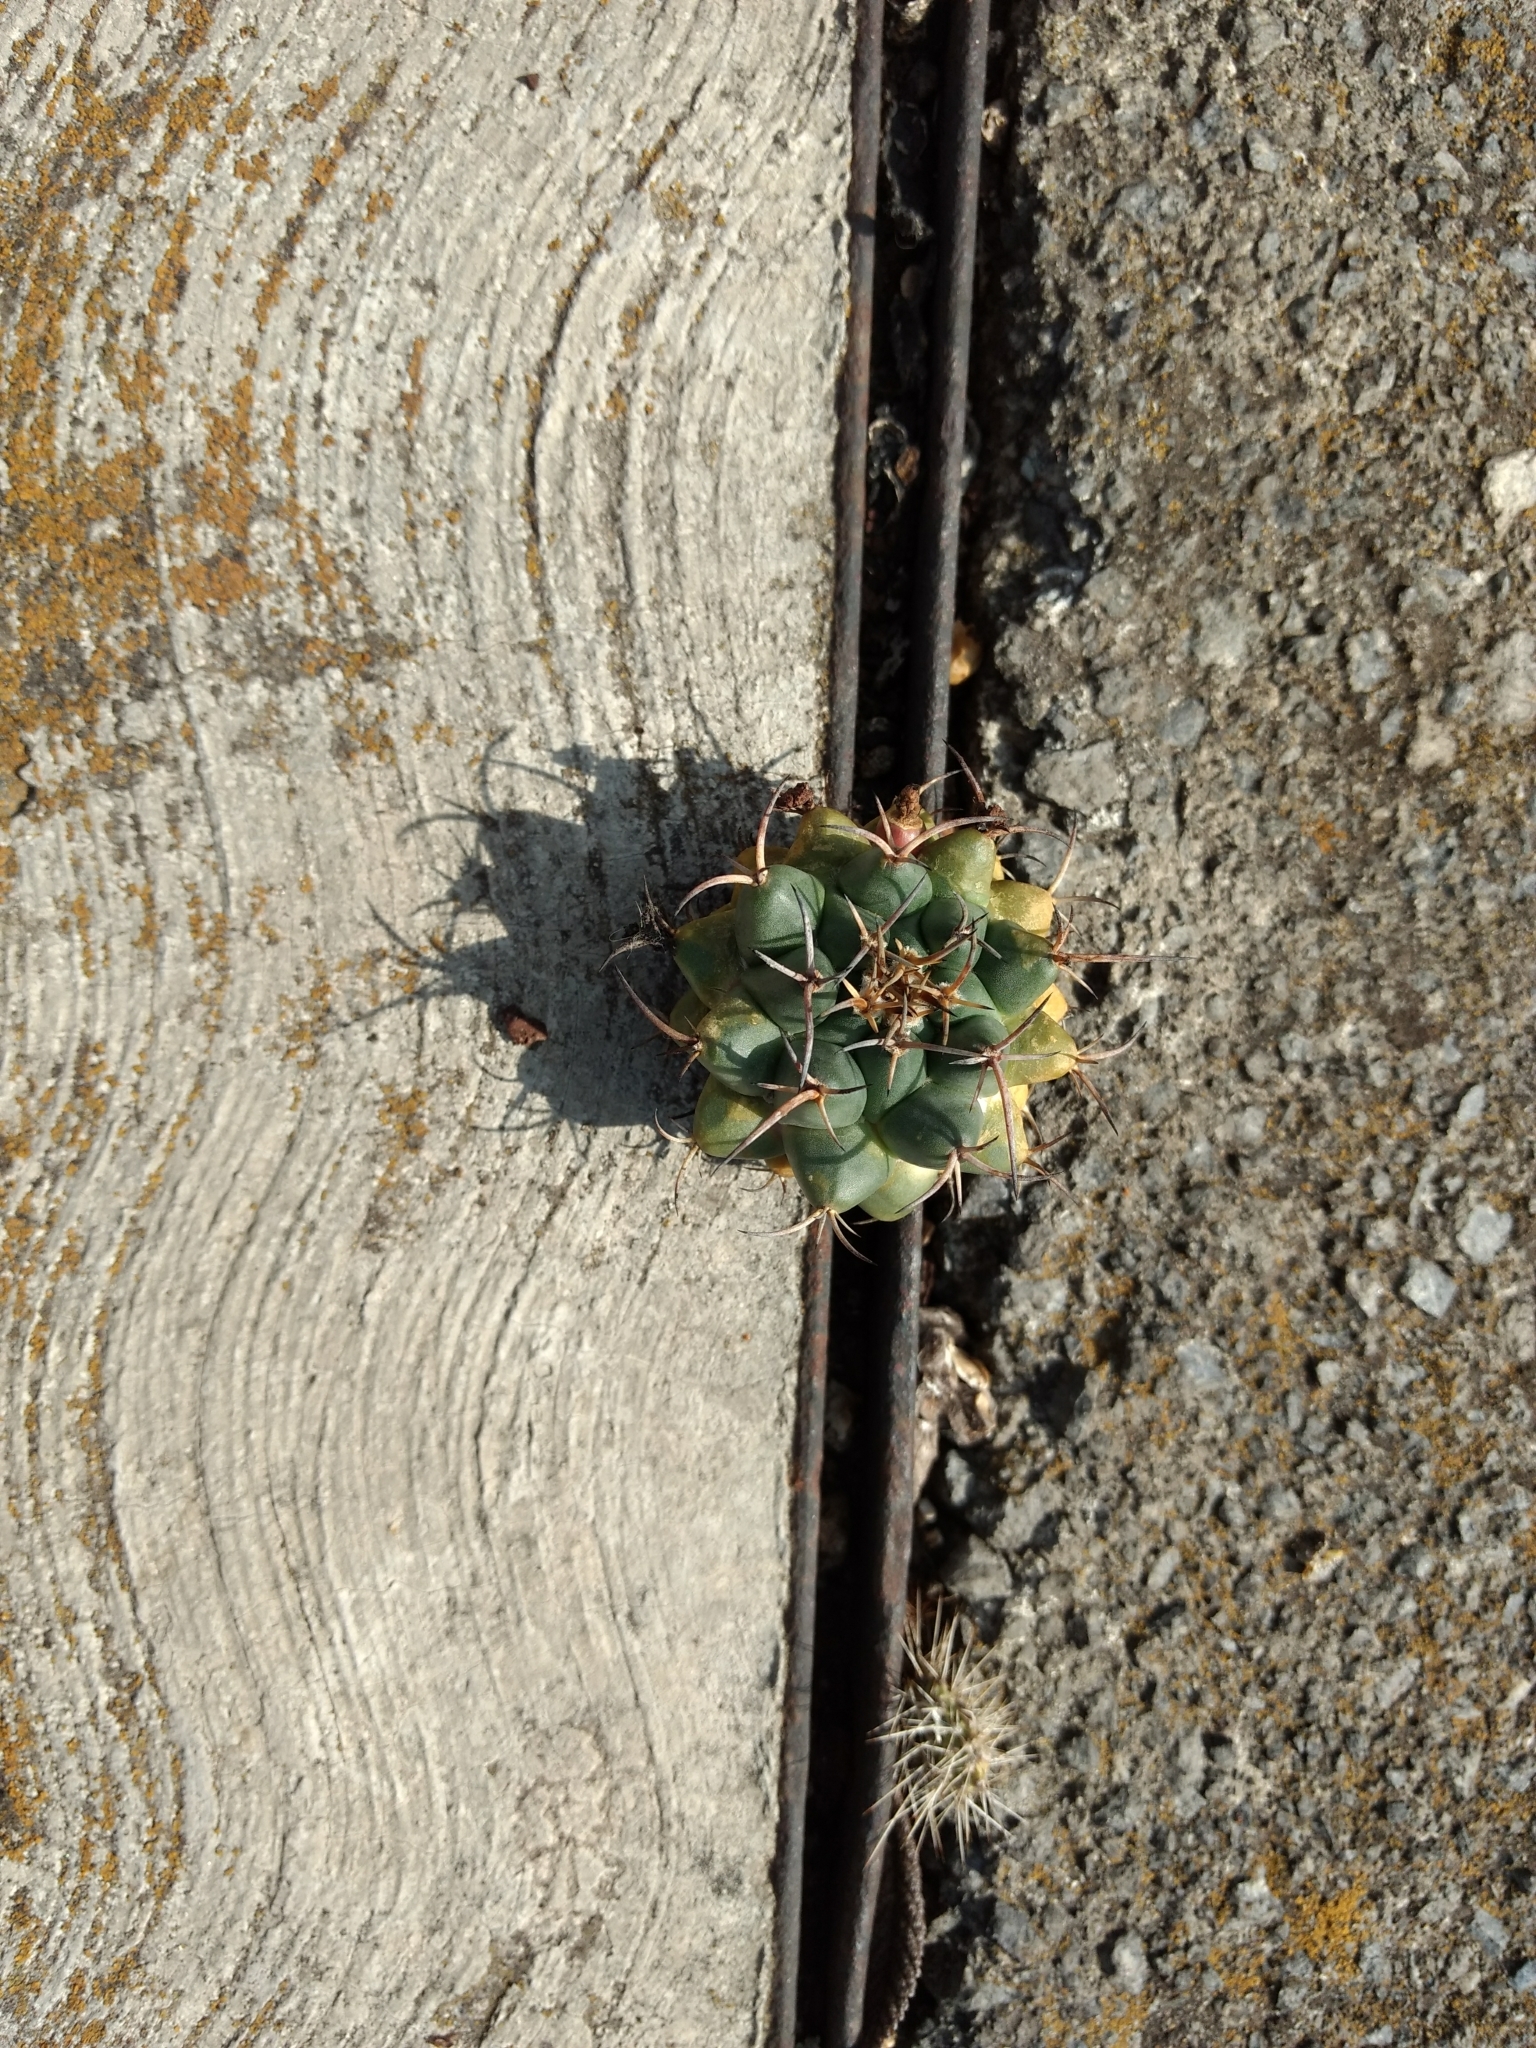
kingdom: Plantae
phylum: Tracheophyta
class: Magnoliopsida
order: Caryophyllales
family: Cactaceae
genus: Mammillaria
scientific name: Mammillaria magnimamma
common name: Mexican pincushion
